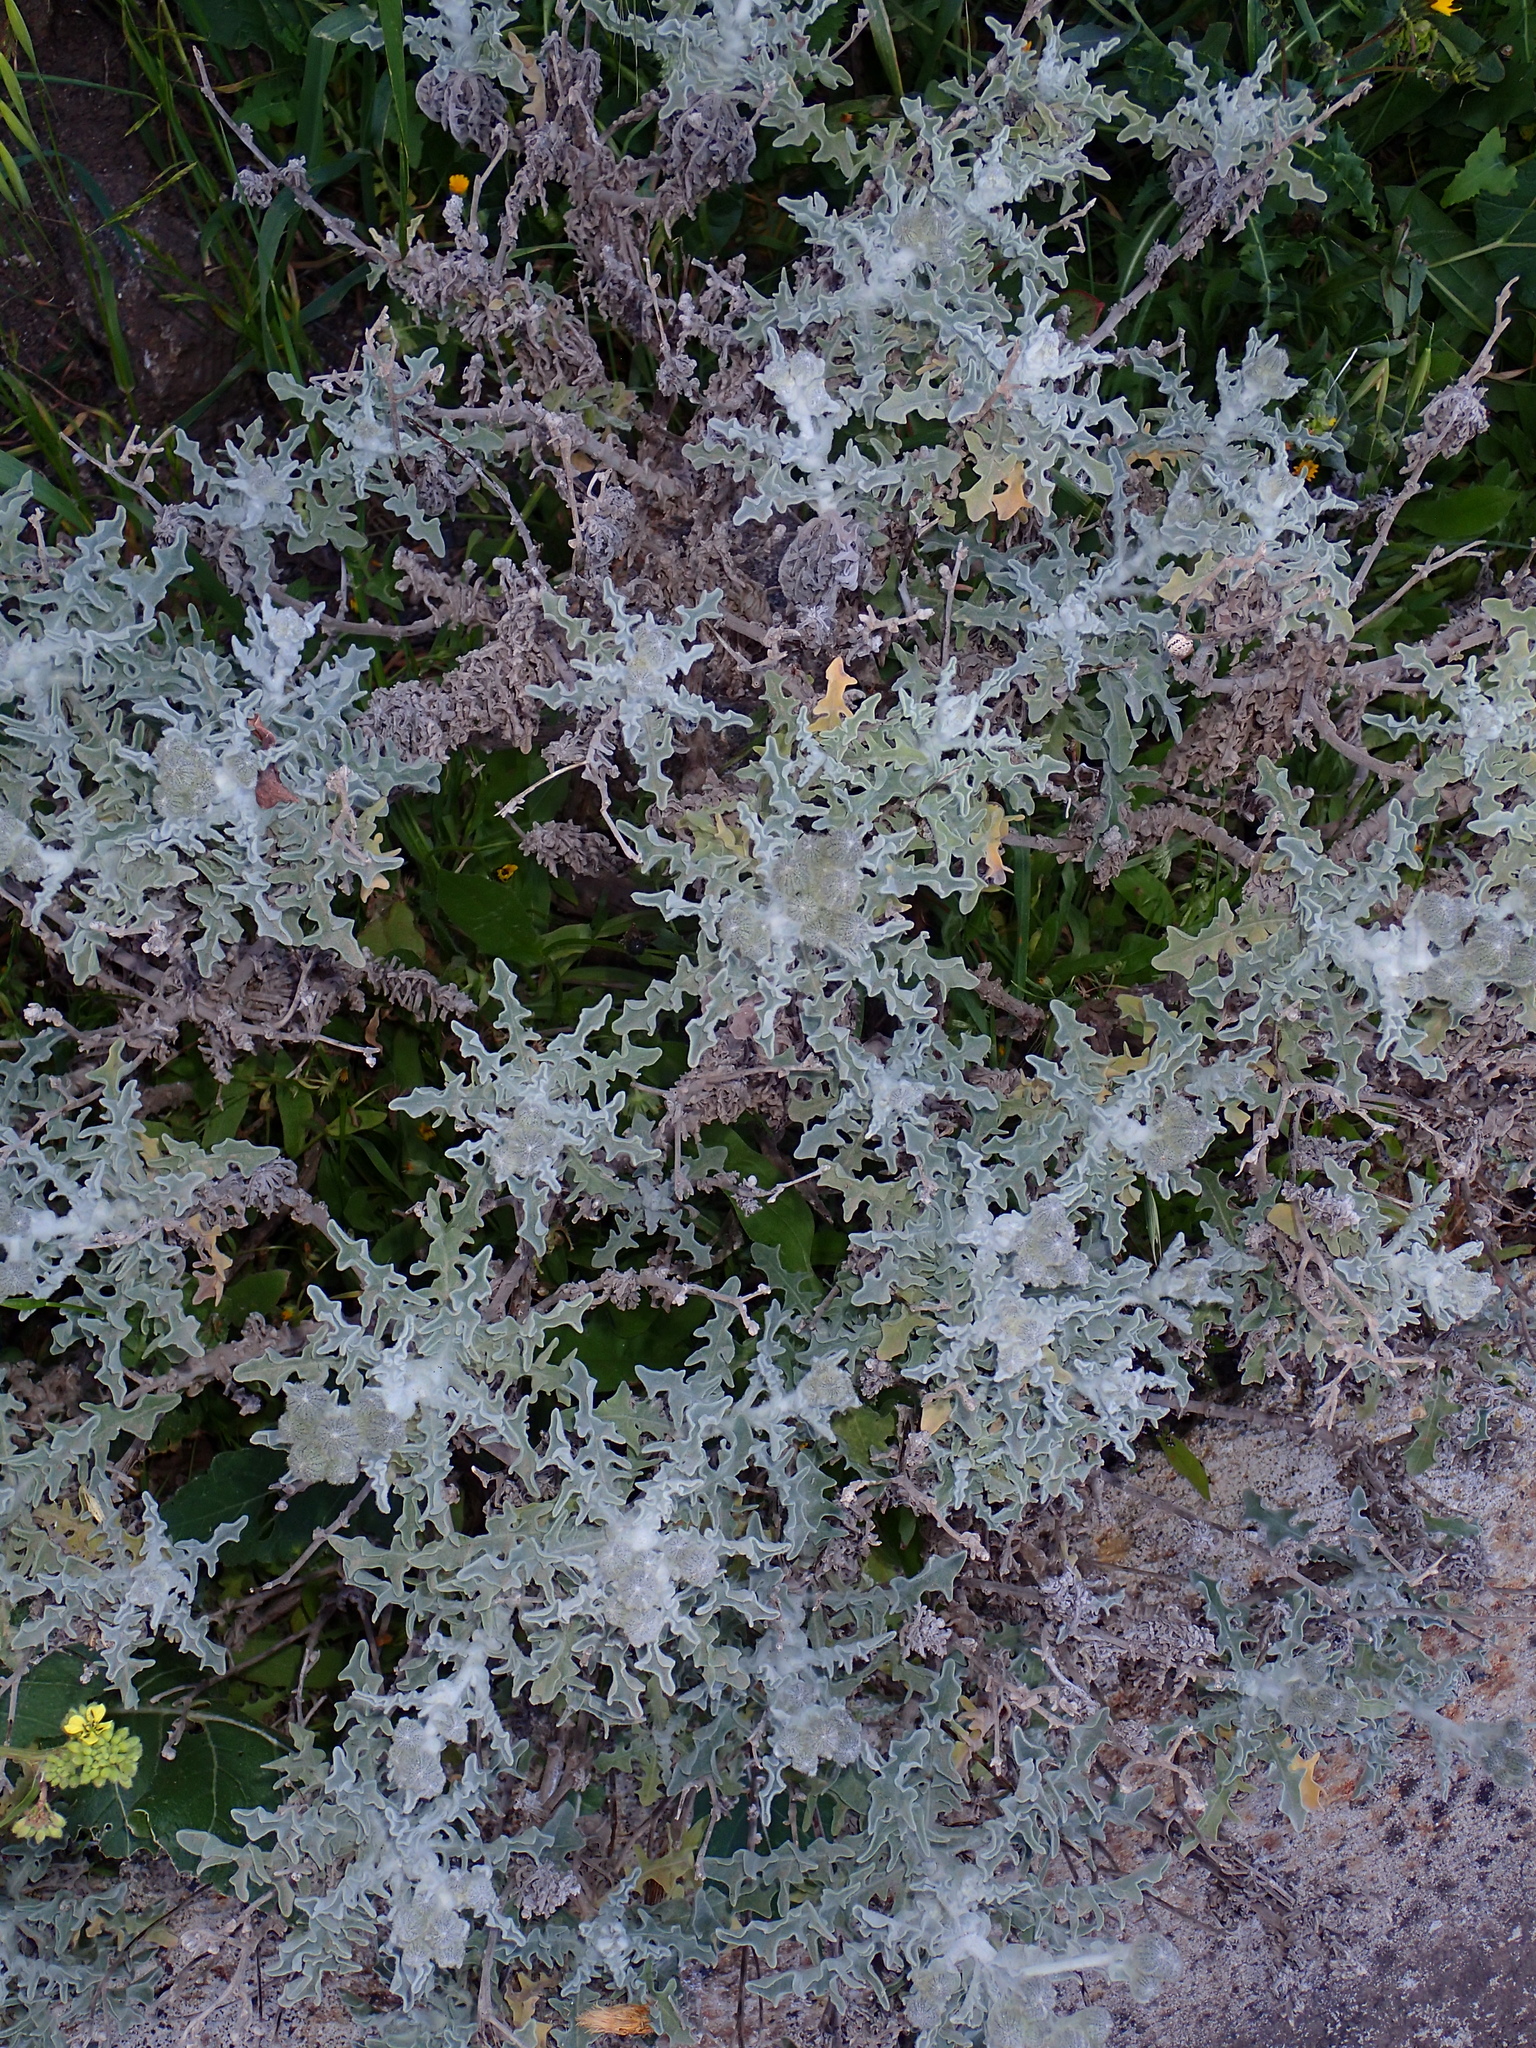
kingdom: Plantae
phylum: Tracheophyta
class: Magnoliopsida
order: Asterales
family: Asteraceae
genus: Andryala
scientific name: Andryala perezii
